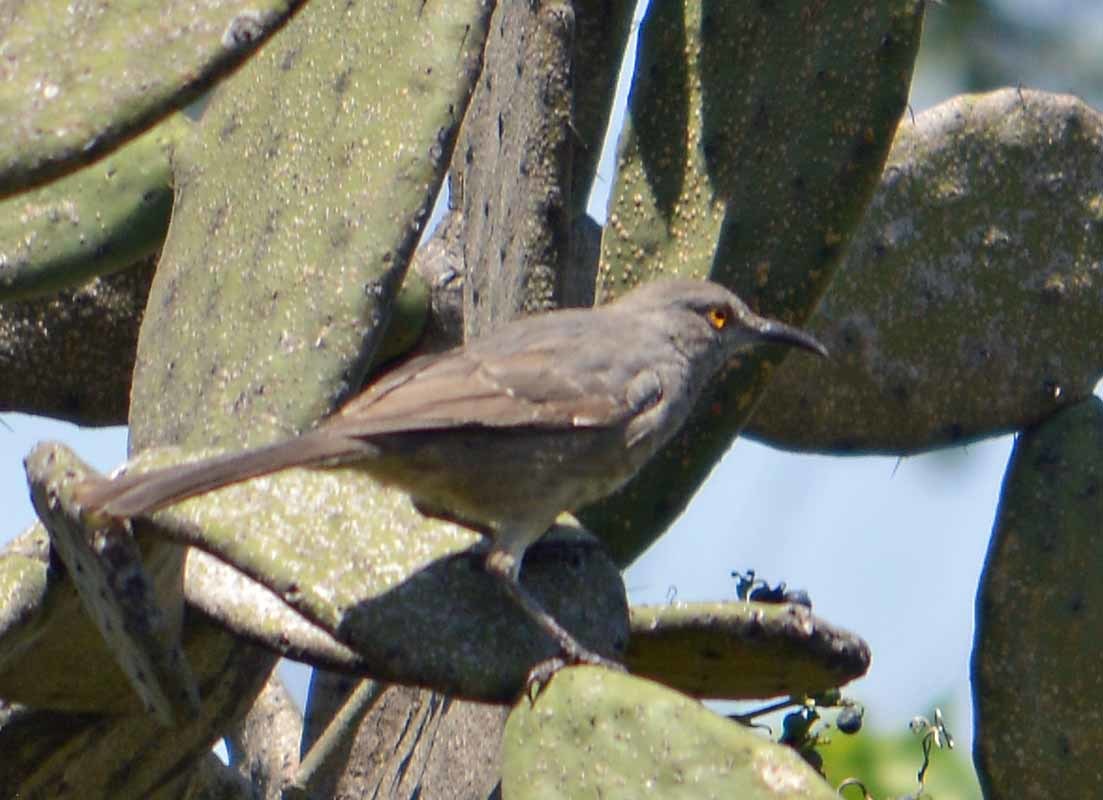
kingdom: Animalia
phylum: Chordata
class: Aves
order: Passeriformes
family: Mimidae
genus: Toxostoma
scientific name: Toxostoma curvirostre
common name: Curve-billed thrasher
